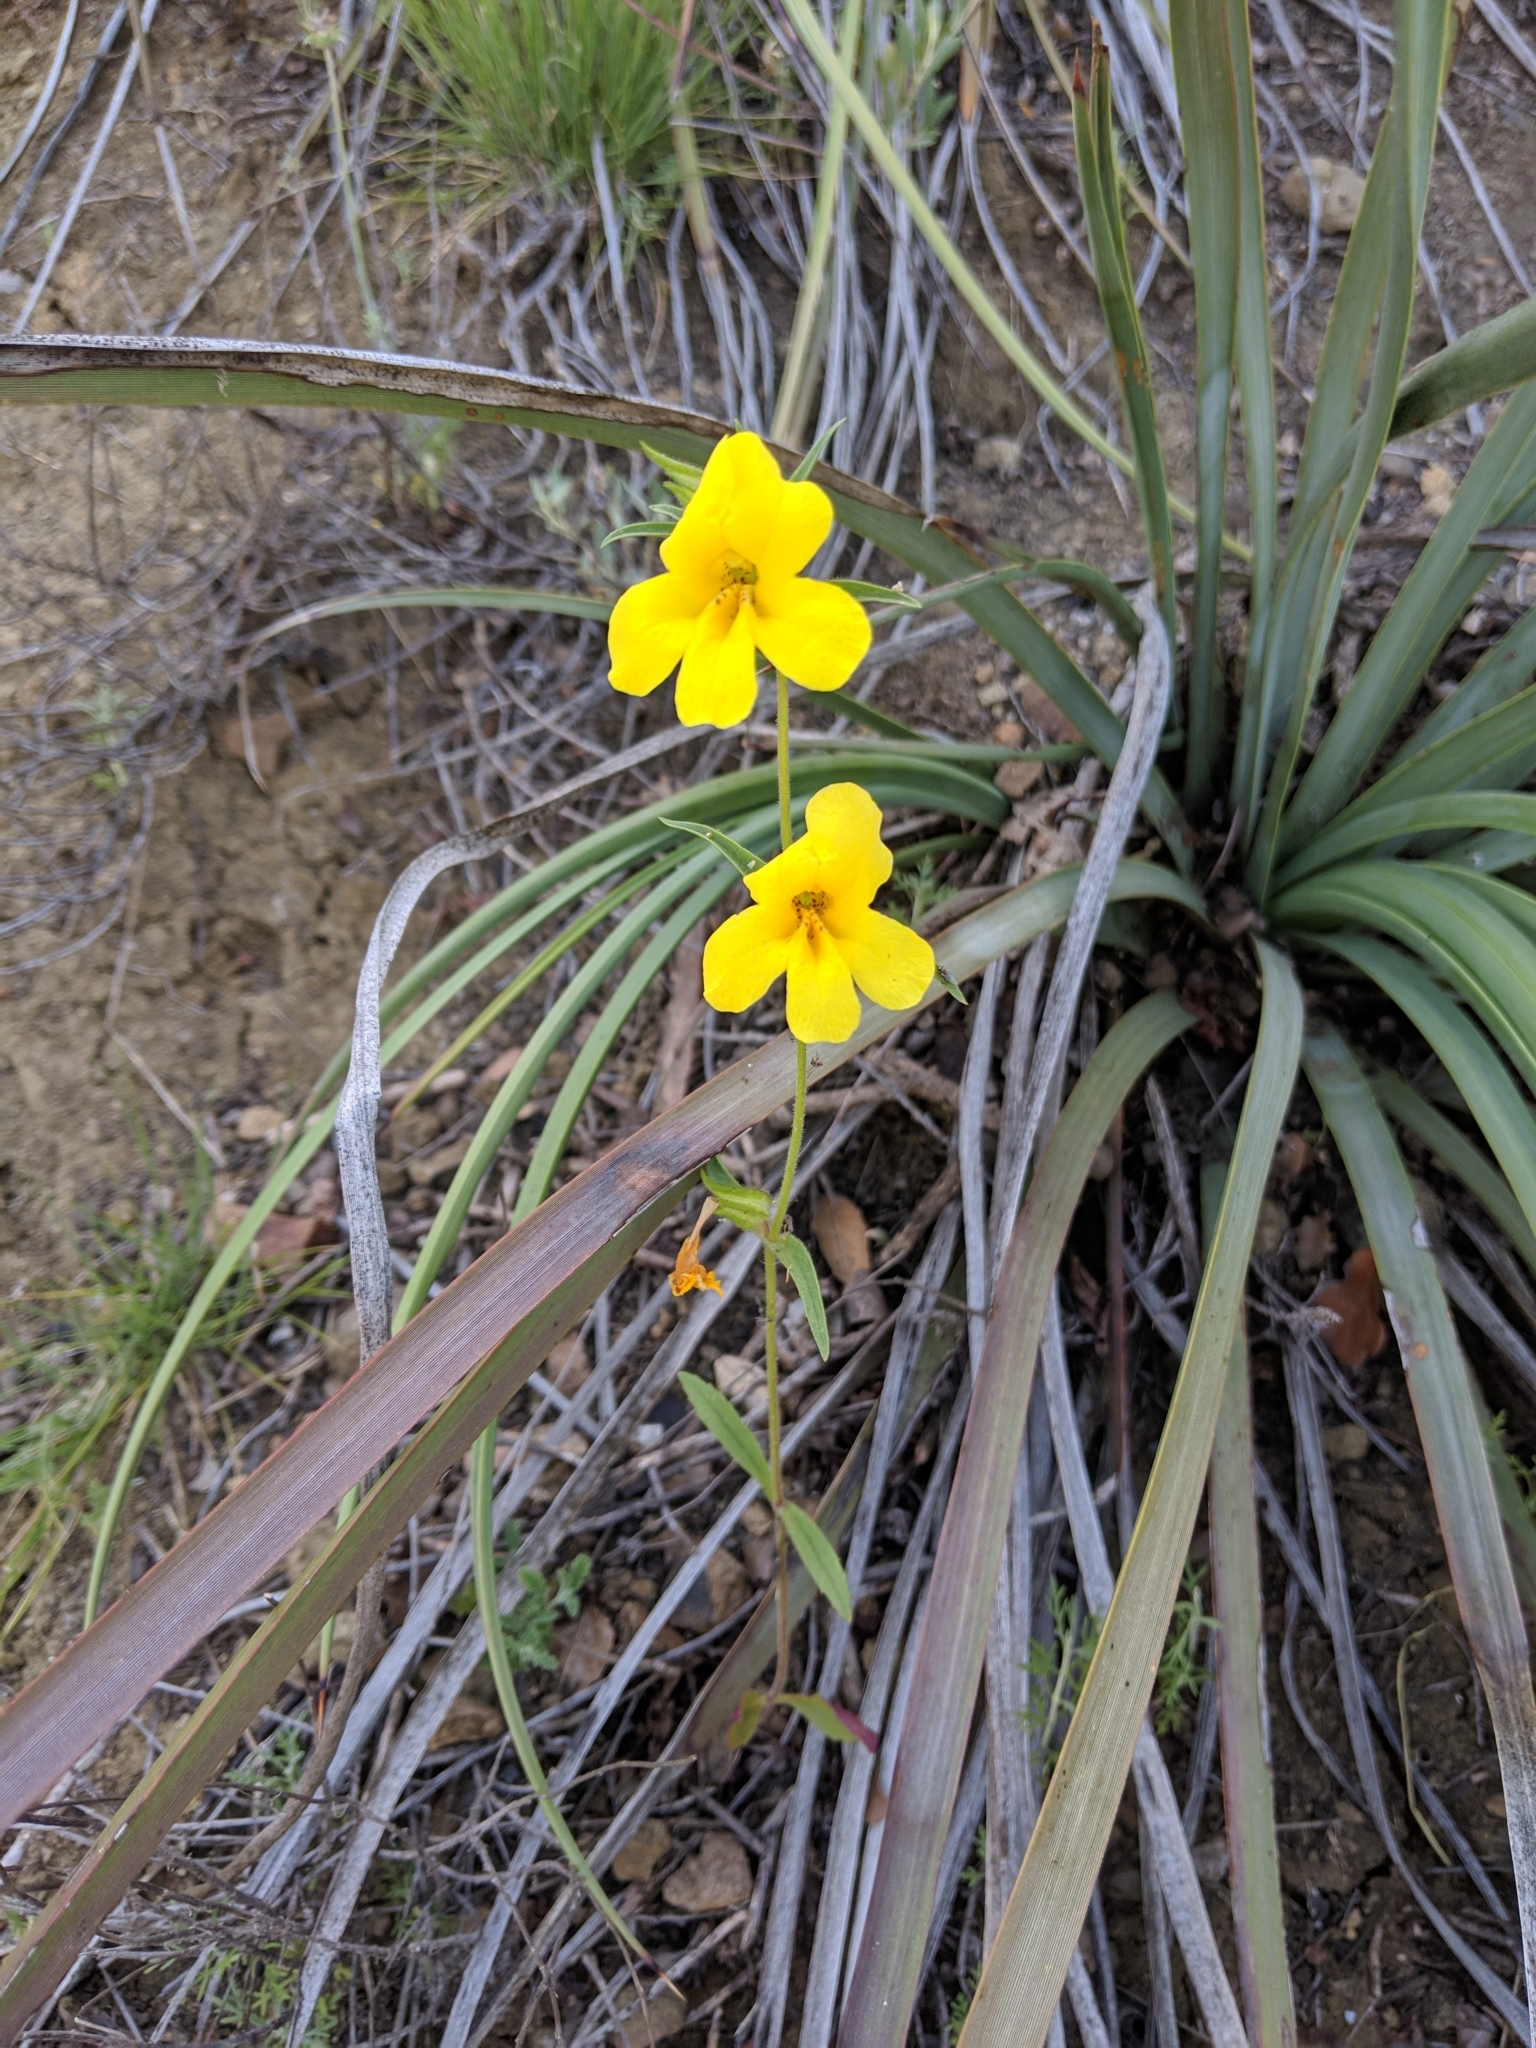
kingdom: Plantae
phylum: Tracheophyta
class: Magnoliopsida
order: Lamiales
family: Phrymaceae
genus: Diplacus
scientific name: Diplacus brevipes
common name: Wide-throat yellow monkey-flower
